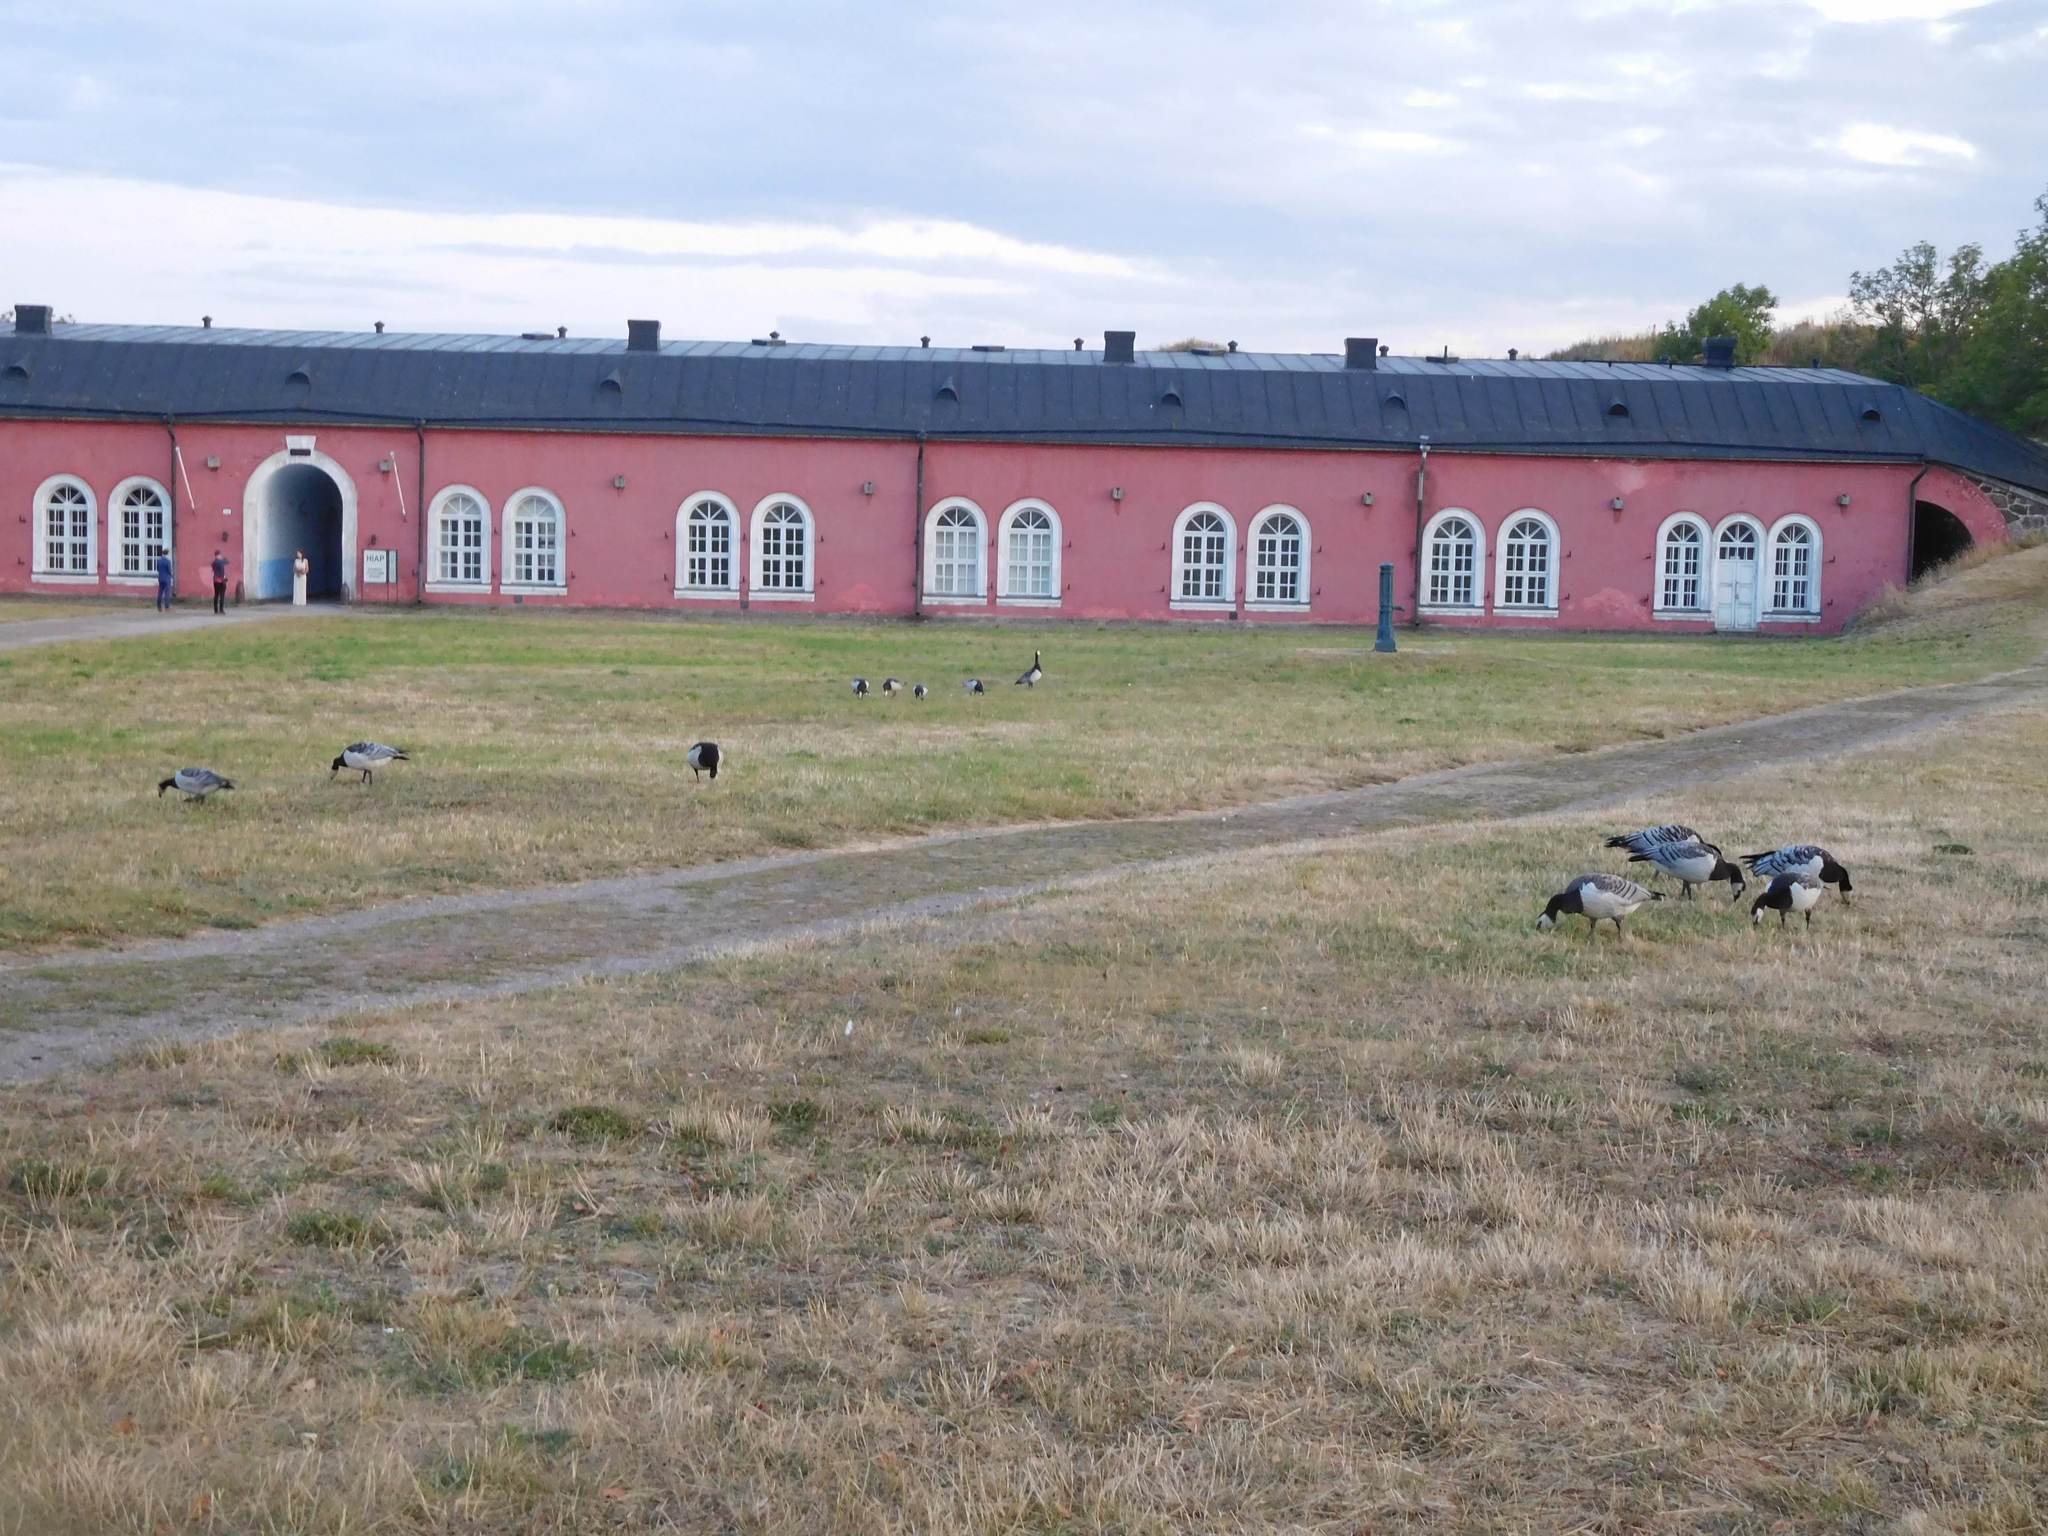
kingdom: Animalia
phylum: Chordata
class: Aves
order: Anseriformes
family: Anatidae
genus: Branta
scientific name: Branta leucopsis
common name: Barnacle goose
